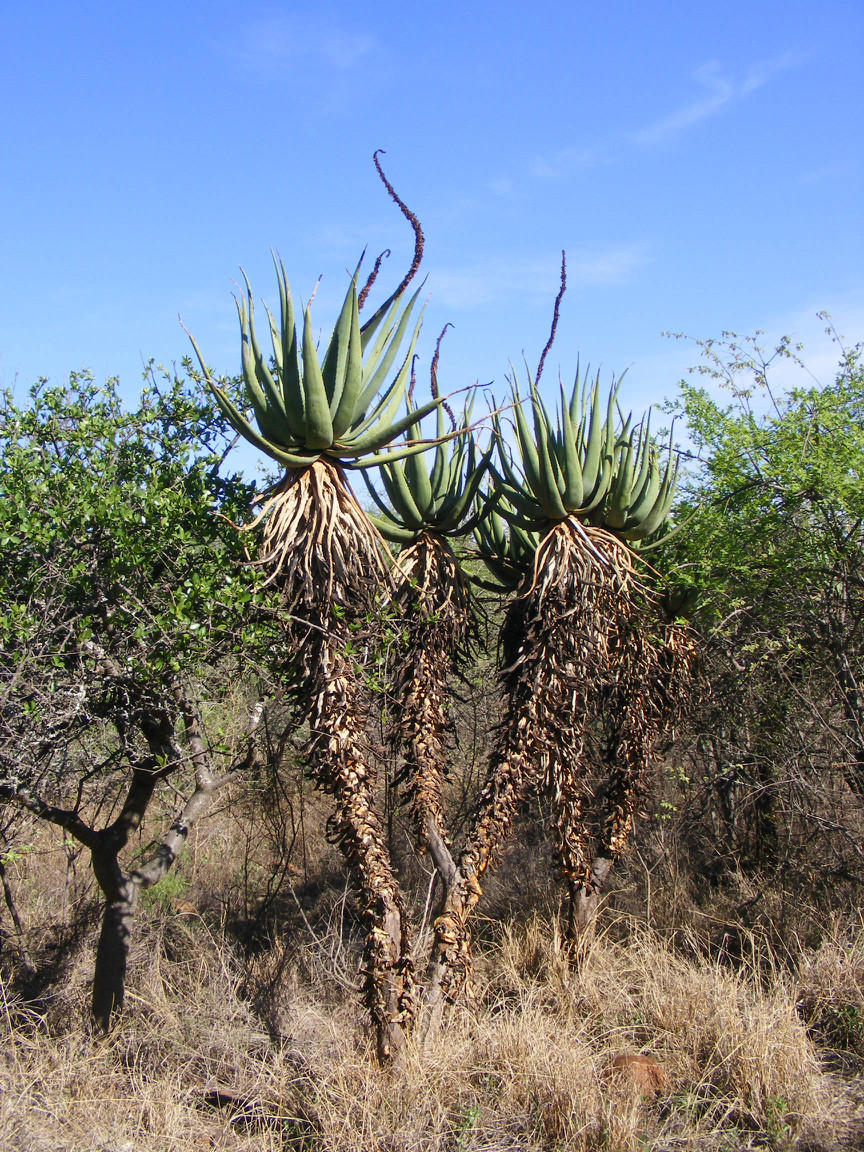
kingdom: Plantae
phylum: Tracheophyta
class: Liliopsida
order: Asparagales
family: Asphodelaceae
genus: Aloe
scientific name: Aloe castanea
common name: Cat's-tail aloe
